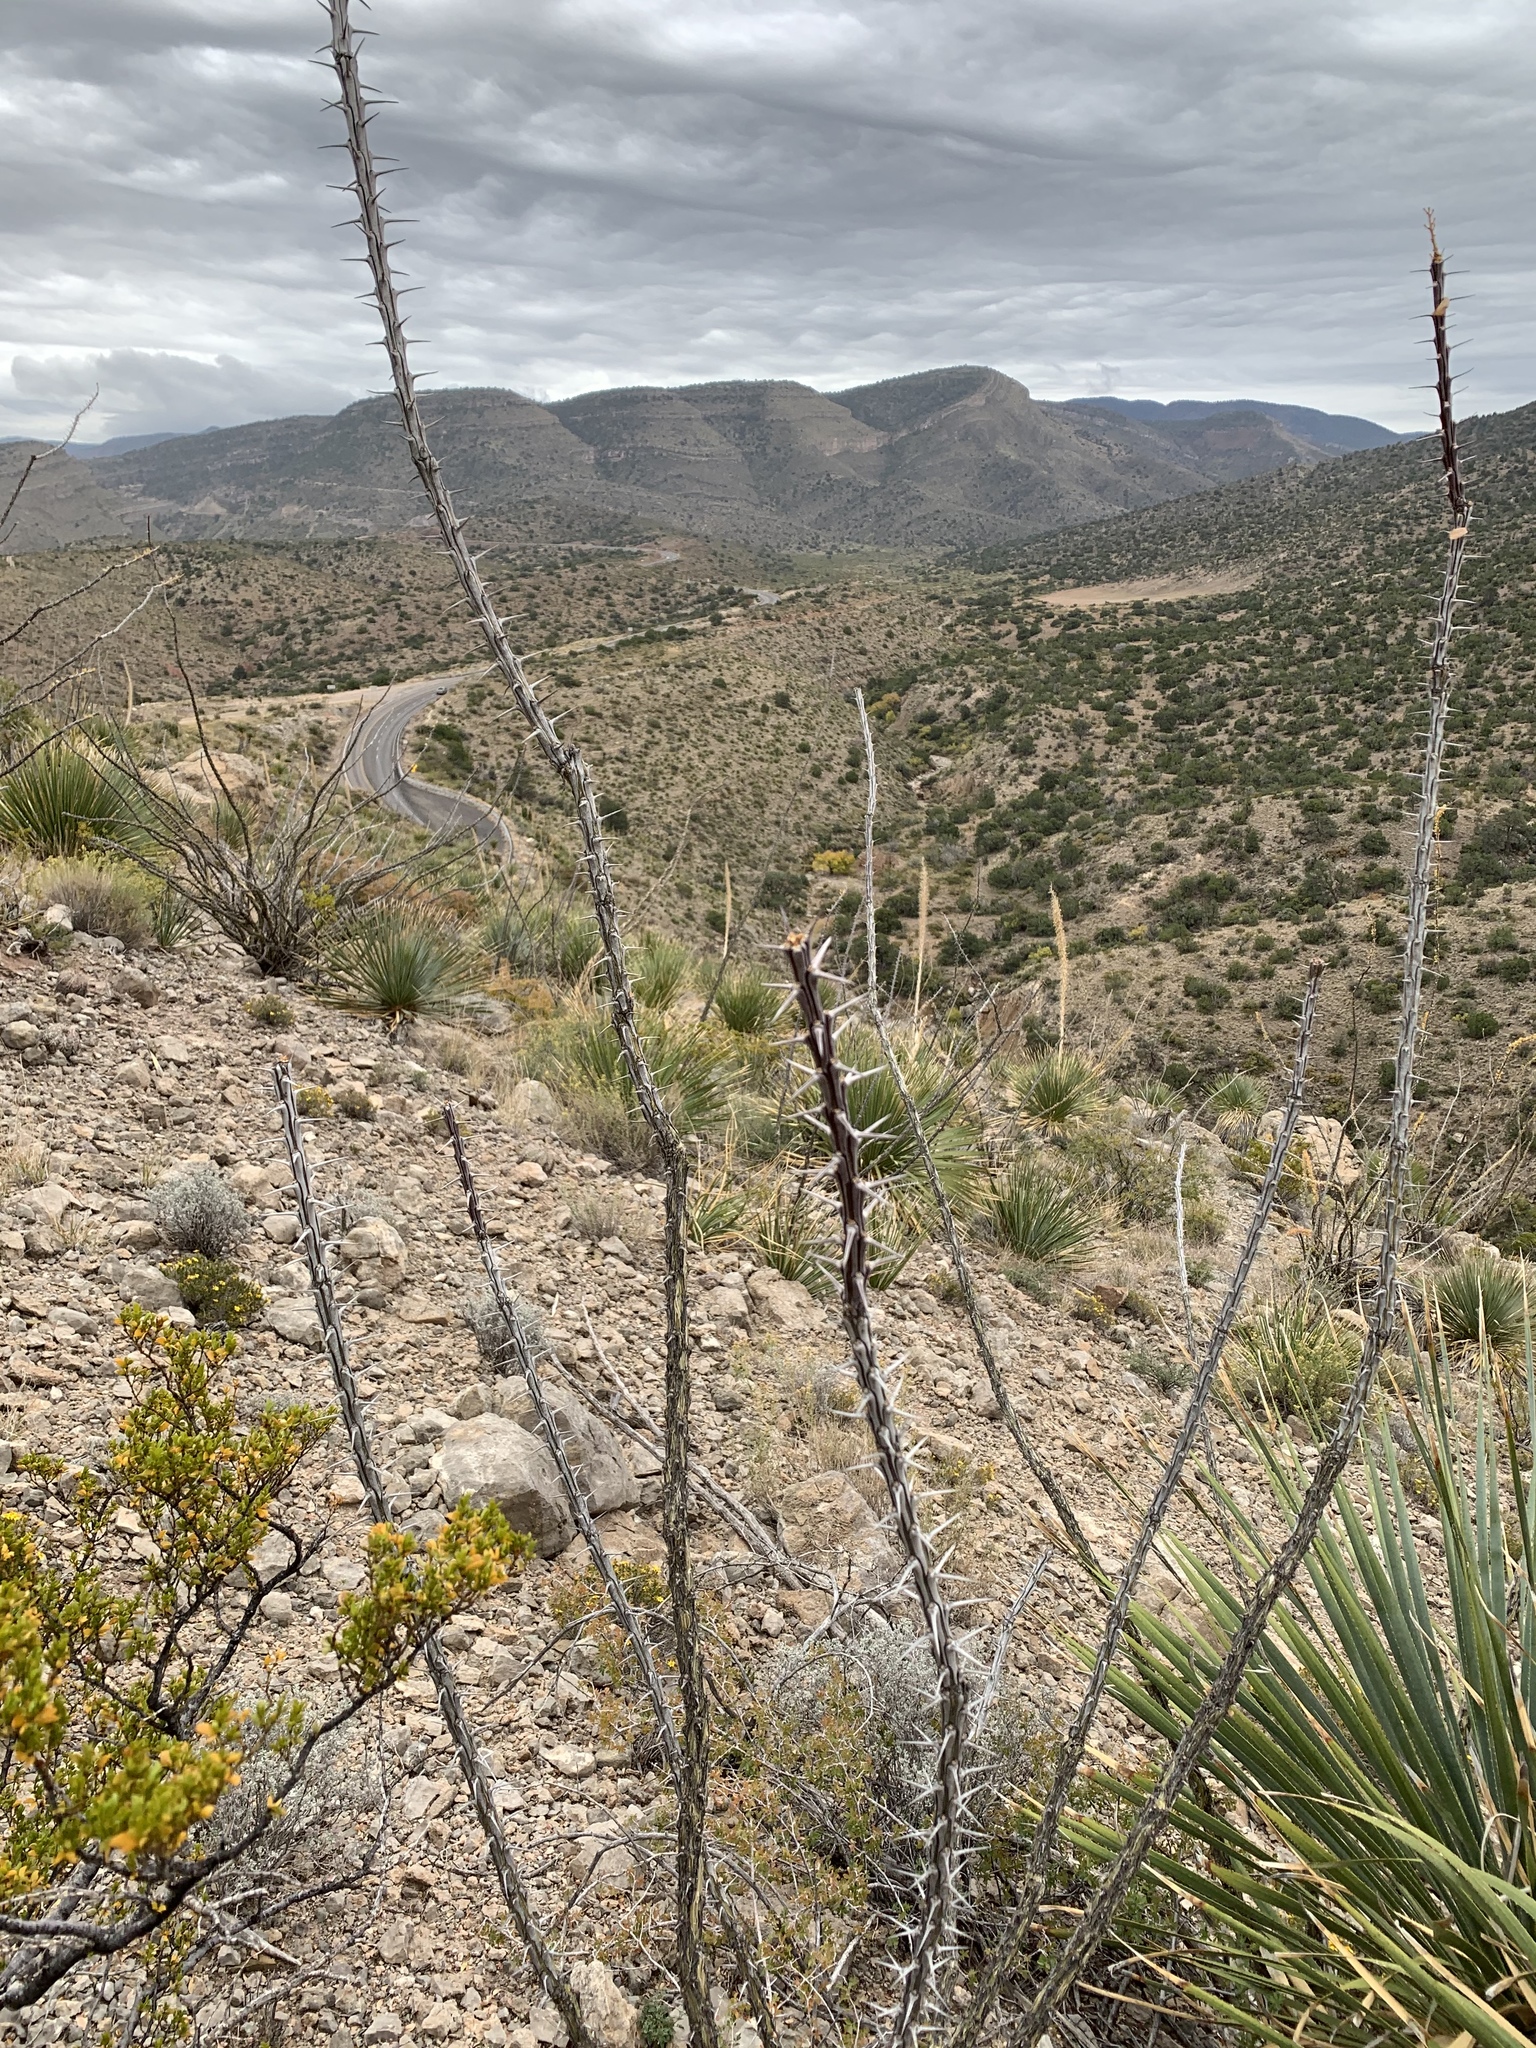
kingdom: Plantae
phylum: Tracheophyta
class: Magnoliopsida
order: Ericales
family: Fouquieriaceae
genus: Fouquieria
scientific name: Fouquieria splendens
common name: Vine-cactus
